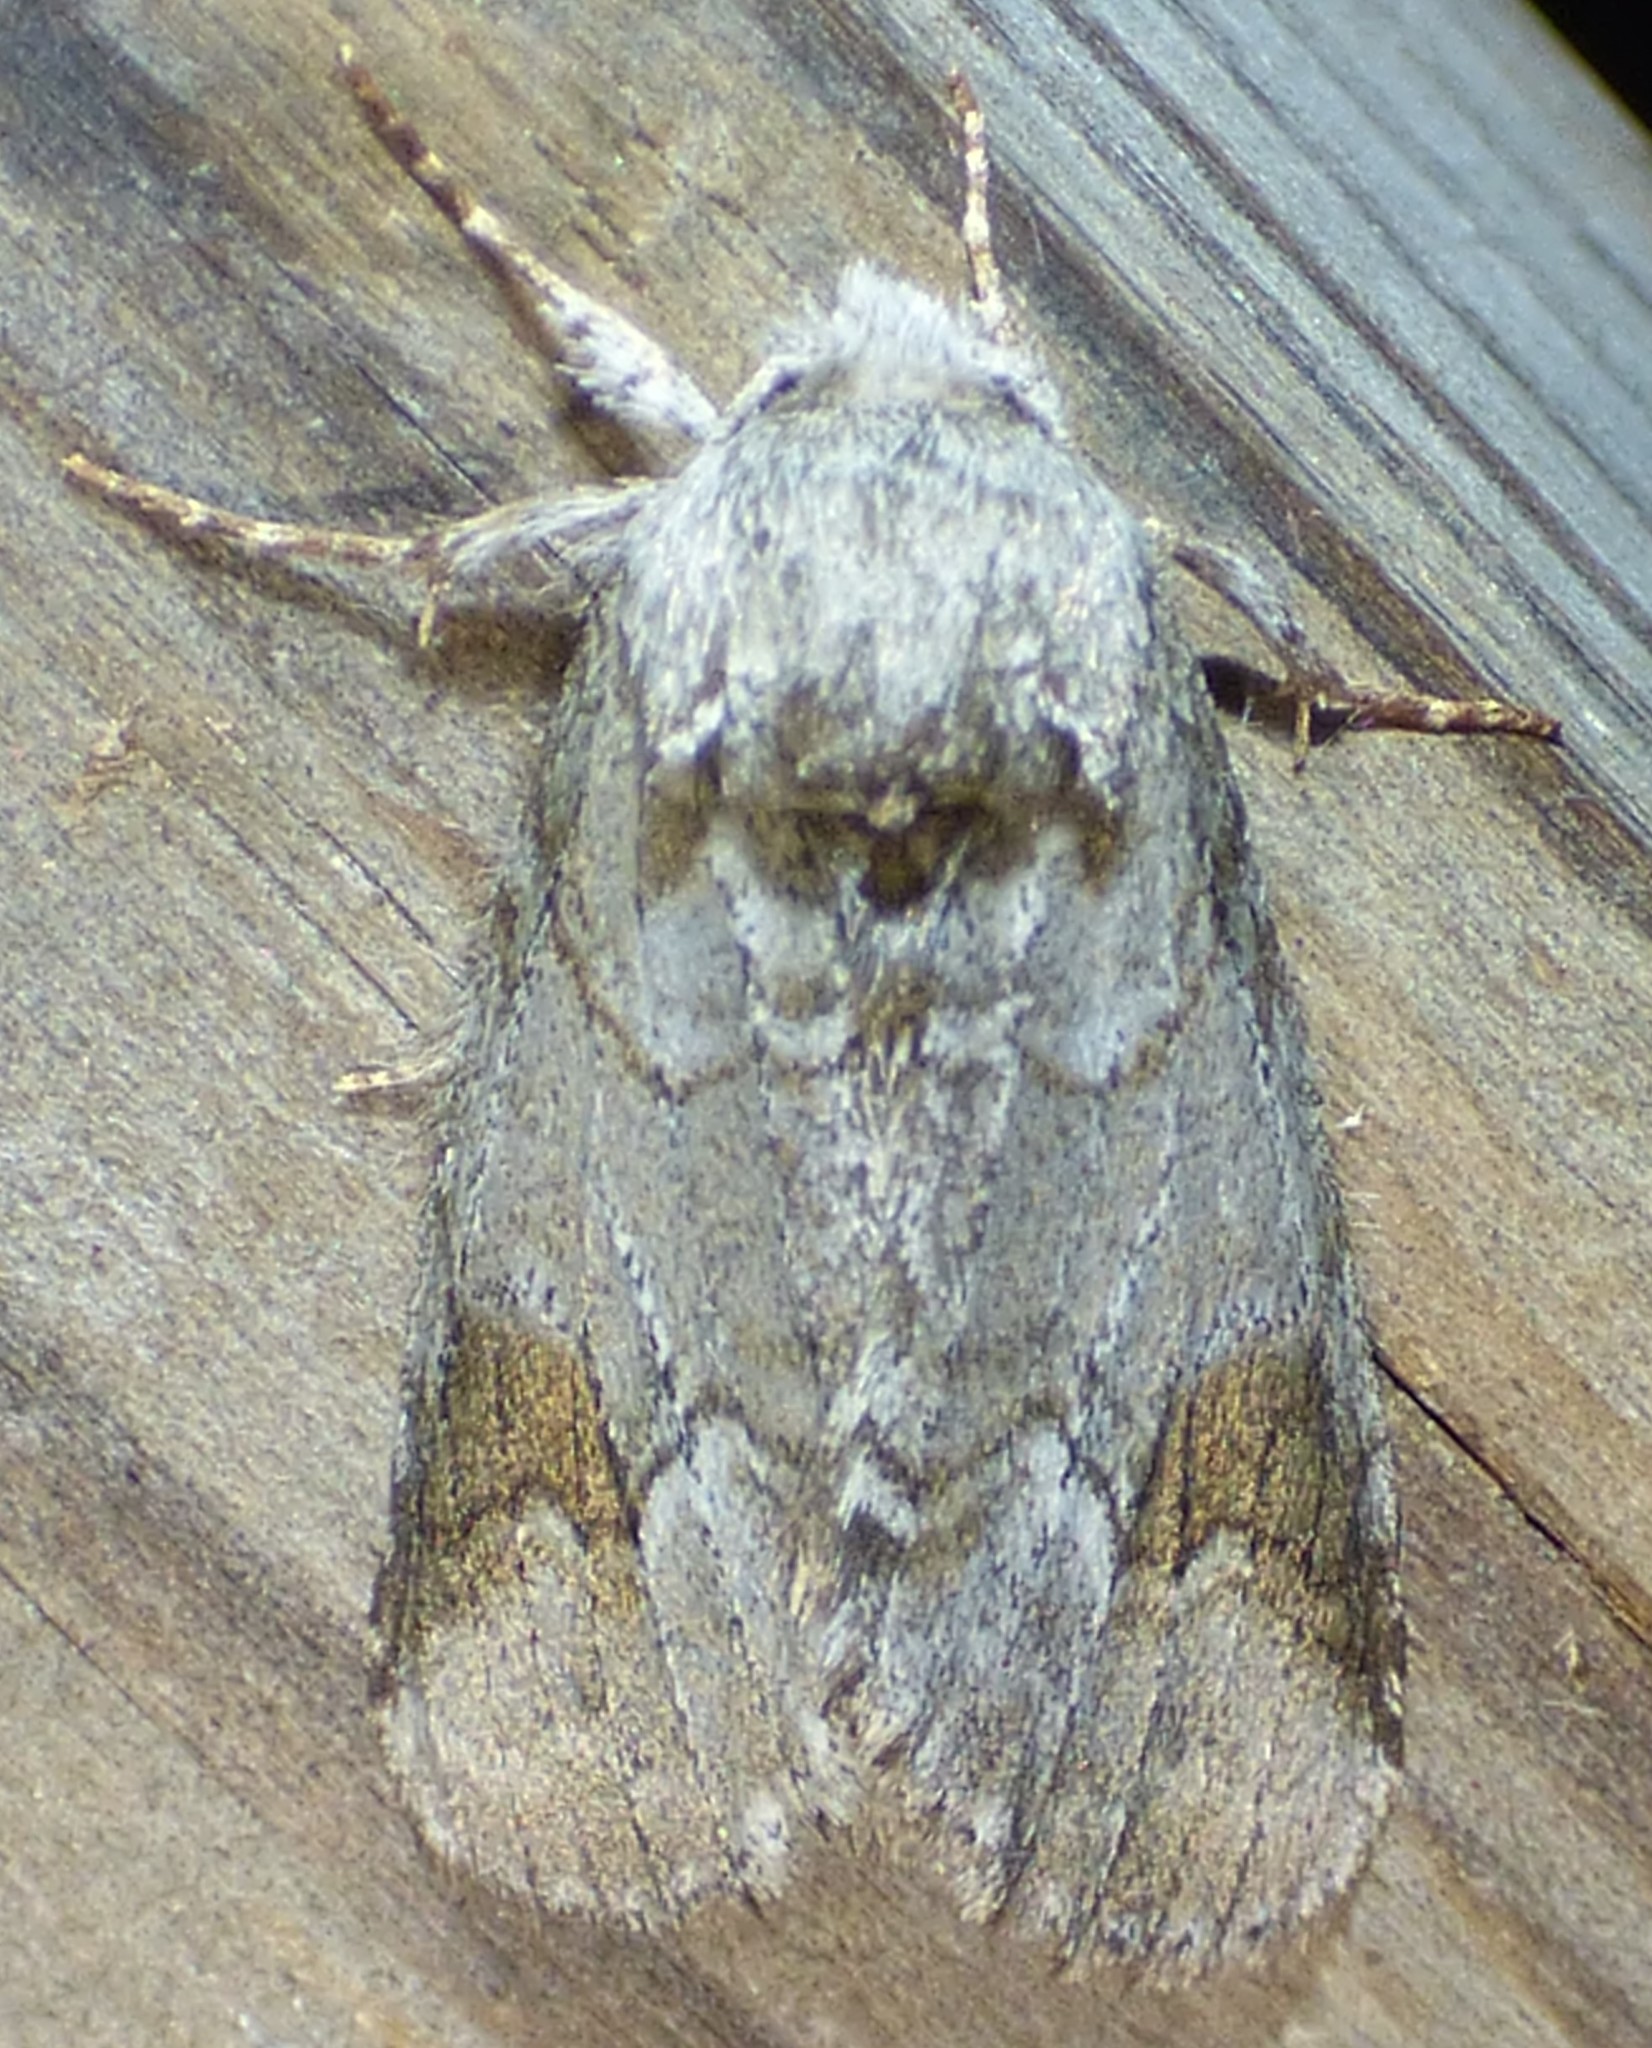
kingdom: Animalia
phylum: Arthropoda
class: Insecta
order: Lepidoptera
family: Notodontidae
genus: Lochmaeus
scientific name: Lochmaeus bilineata
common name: Double-lined prominent
